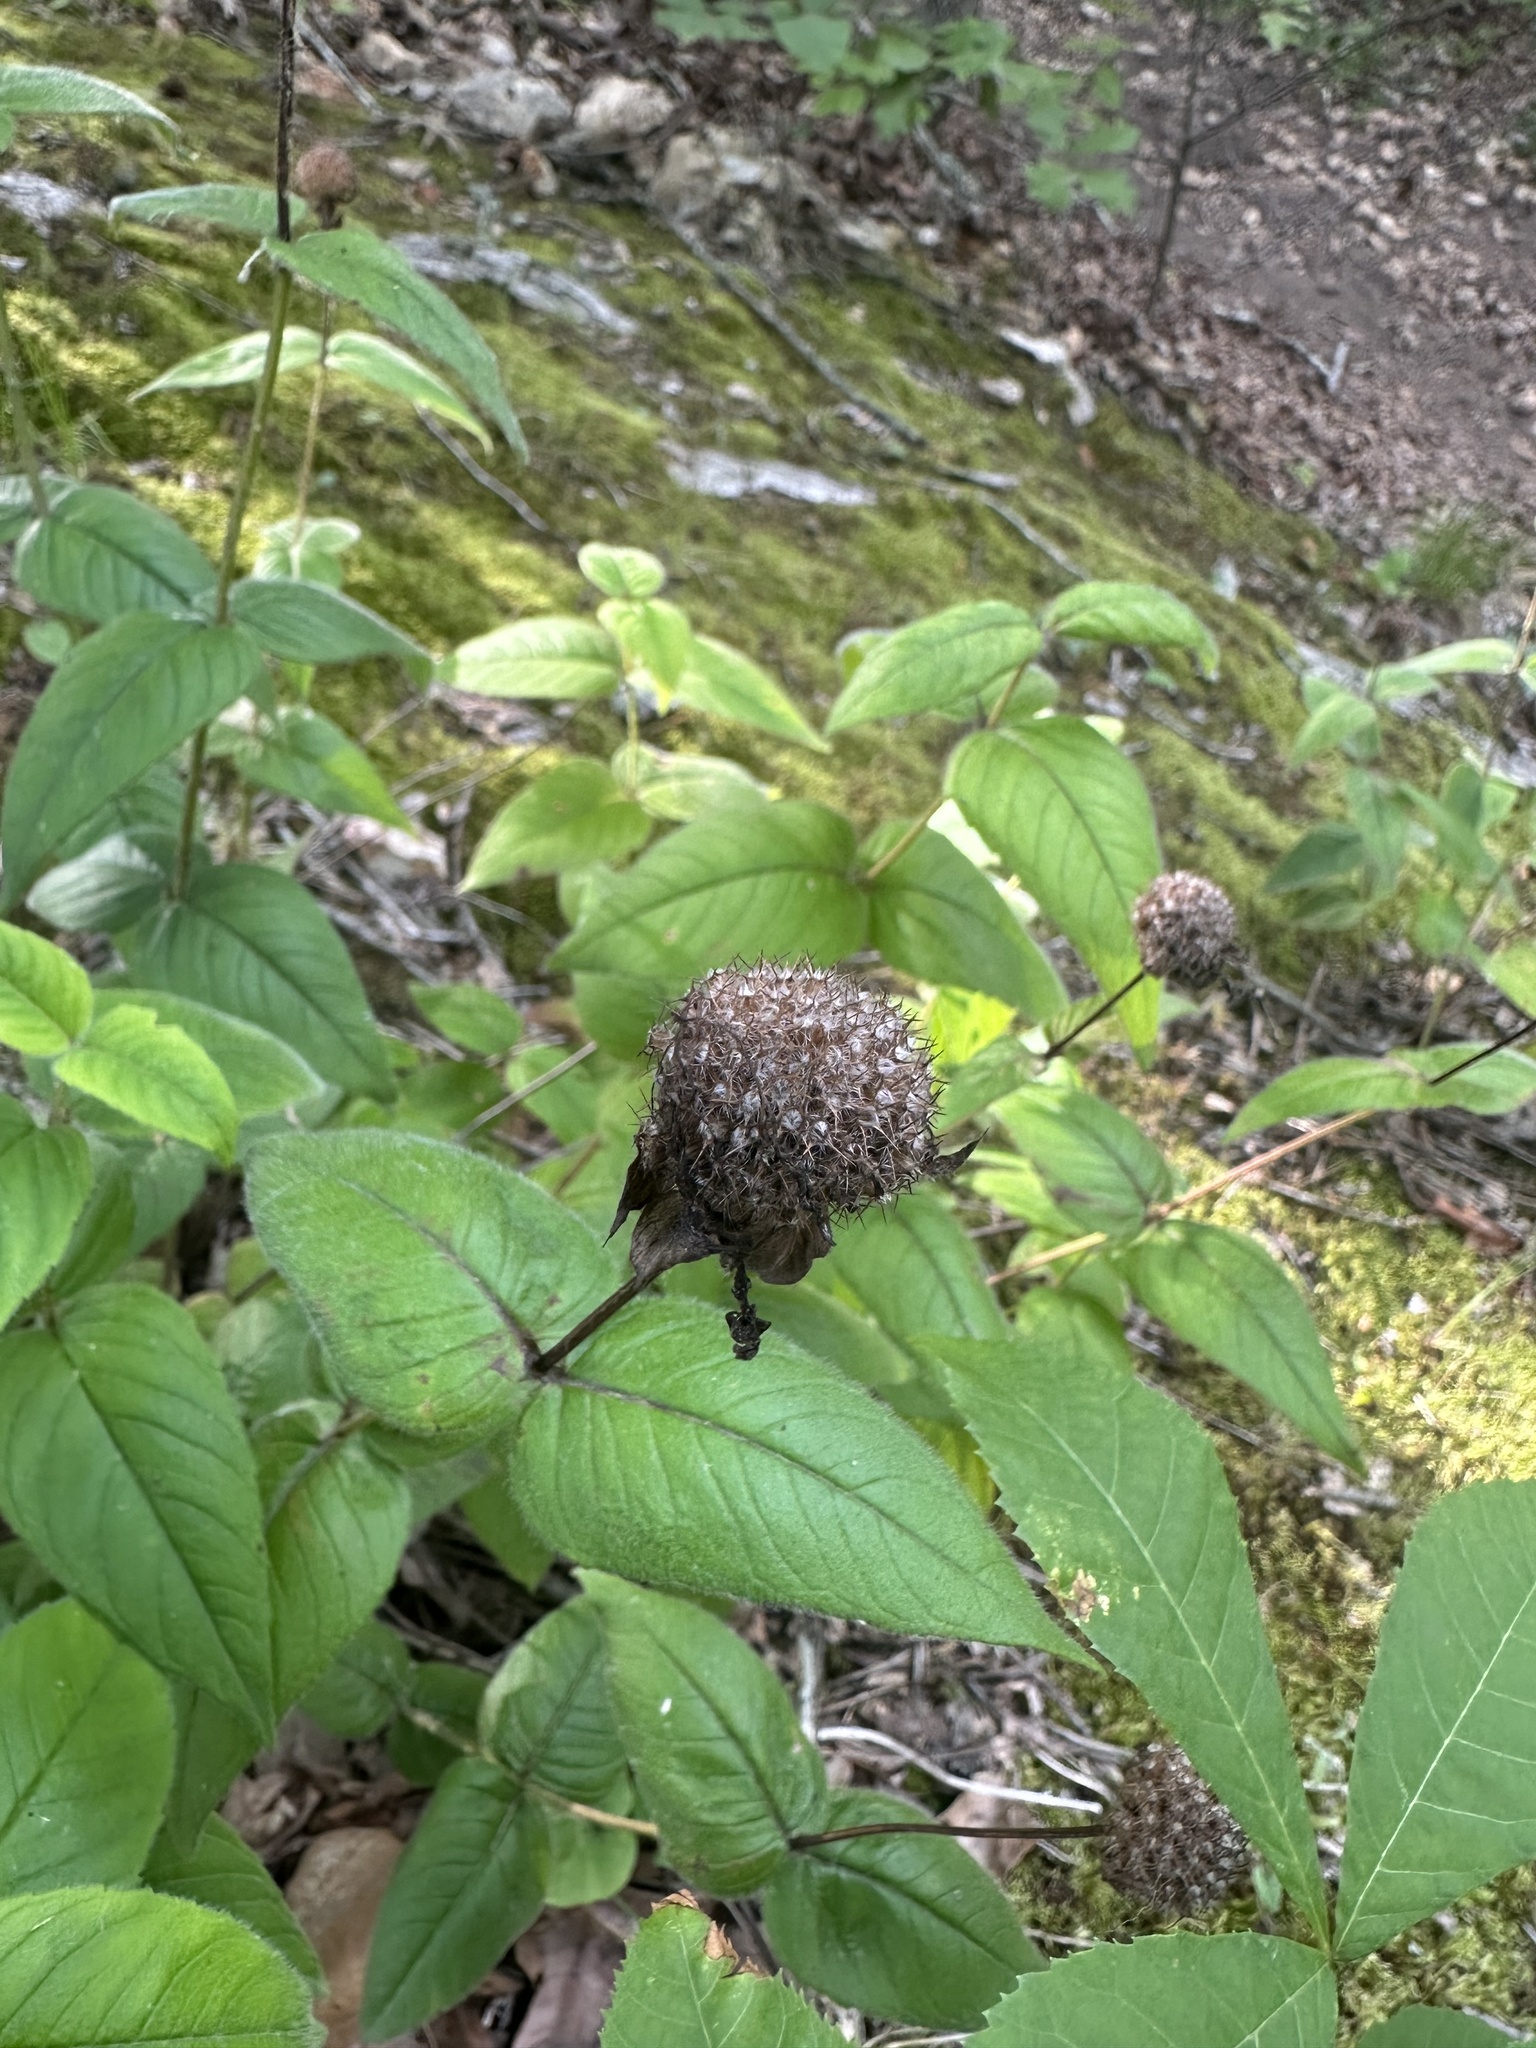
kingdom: Plantae
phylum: Tracheophyta
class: Magnoliopsida
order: Lamiales
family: Lamiaceae
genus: Monarda
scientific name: Monarda bradburiana
